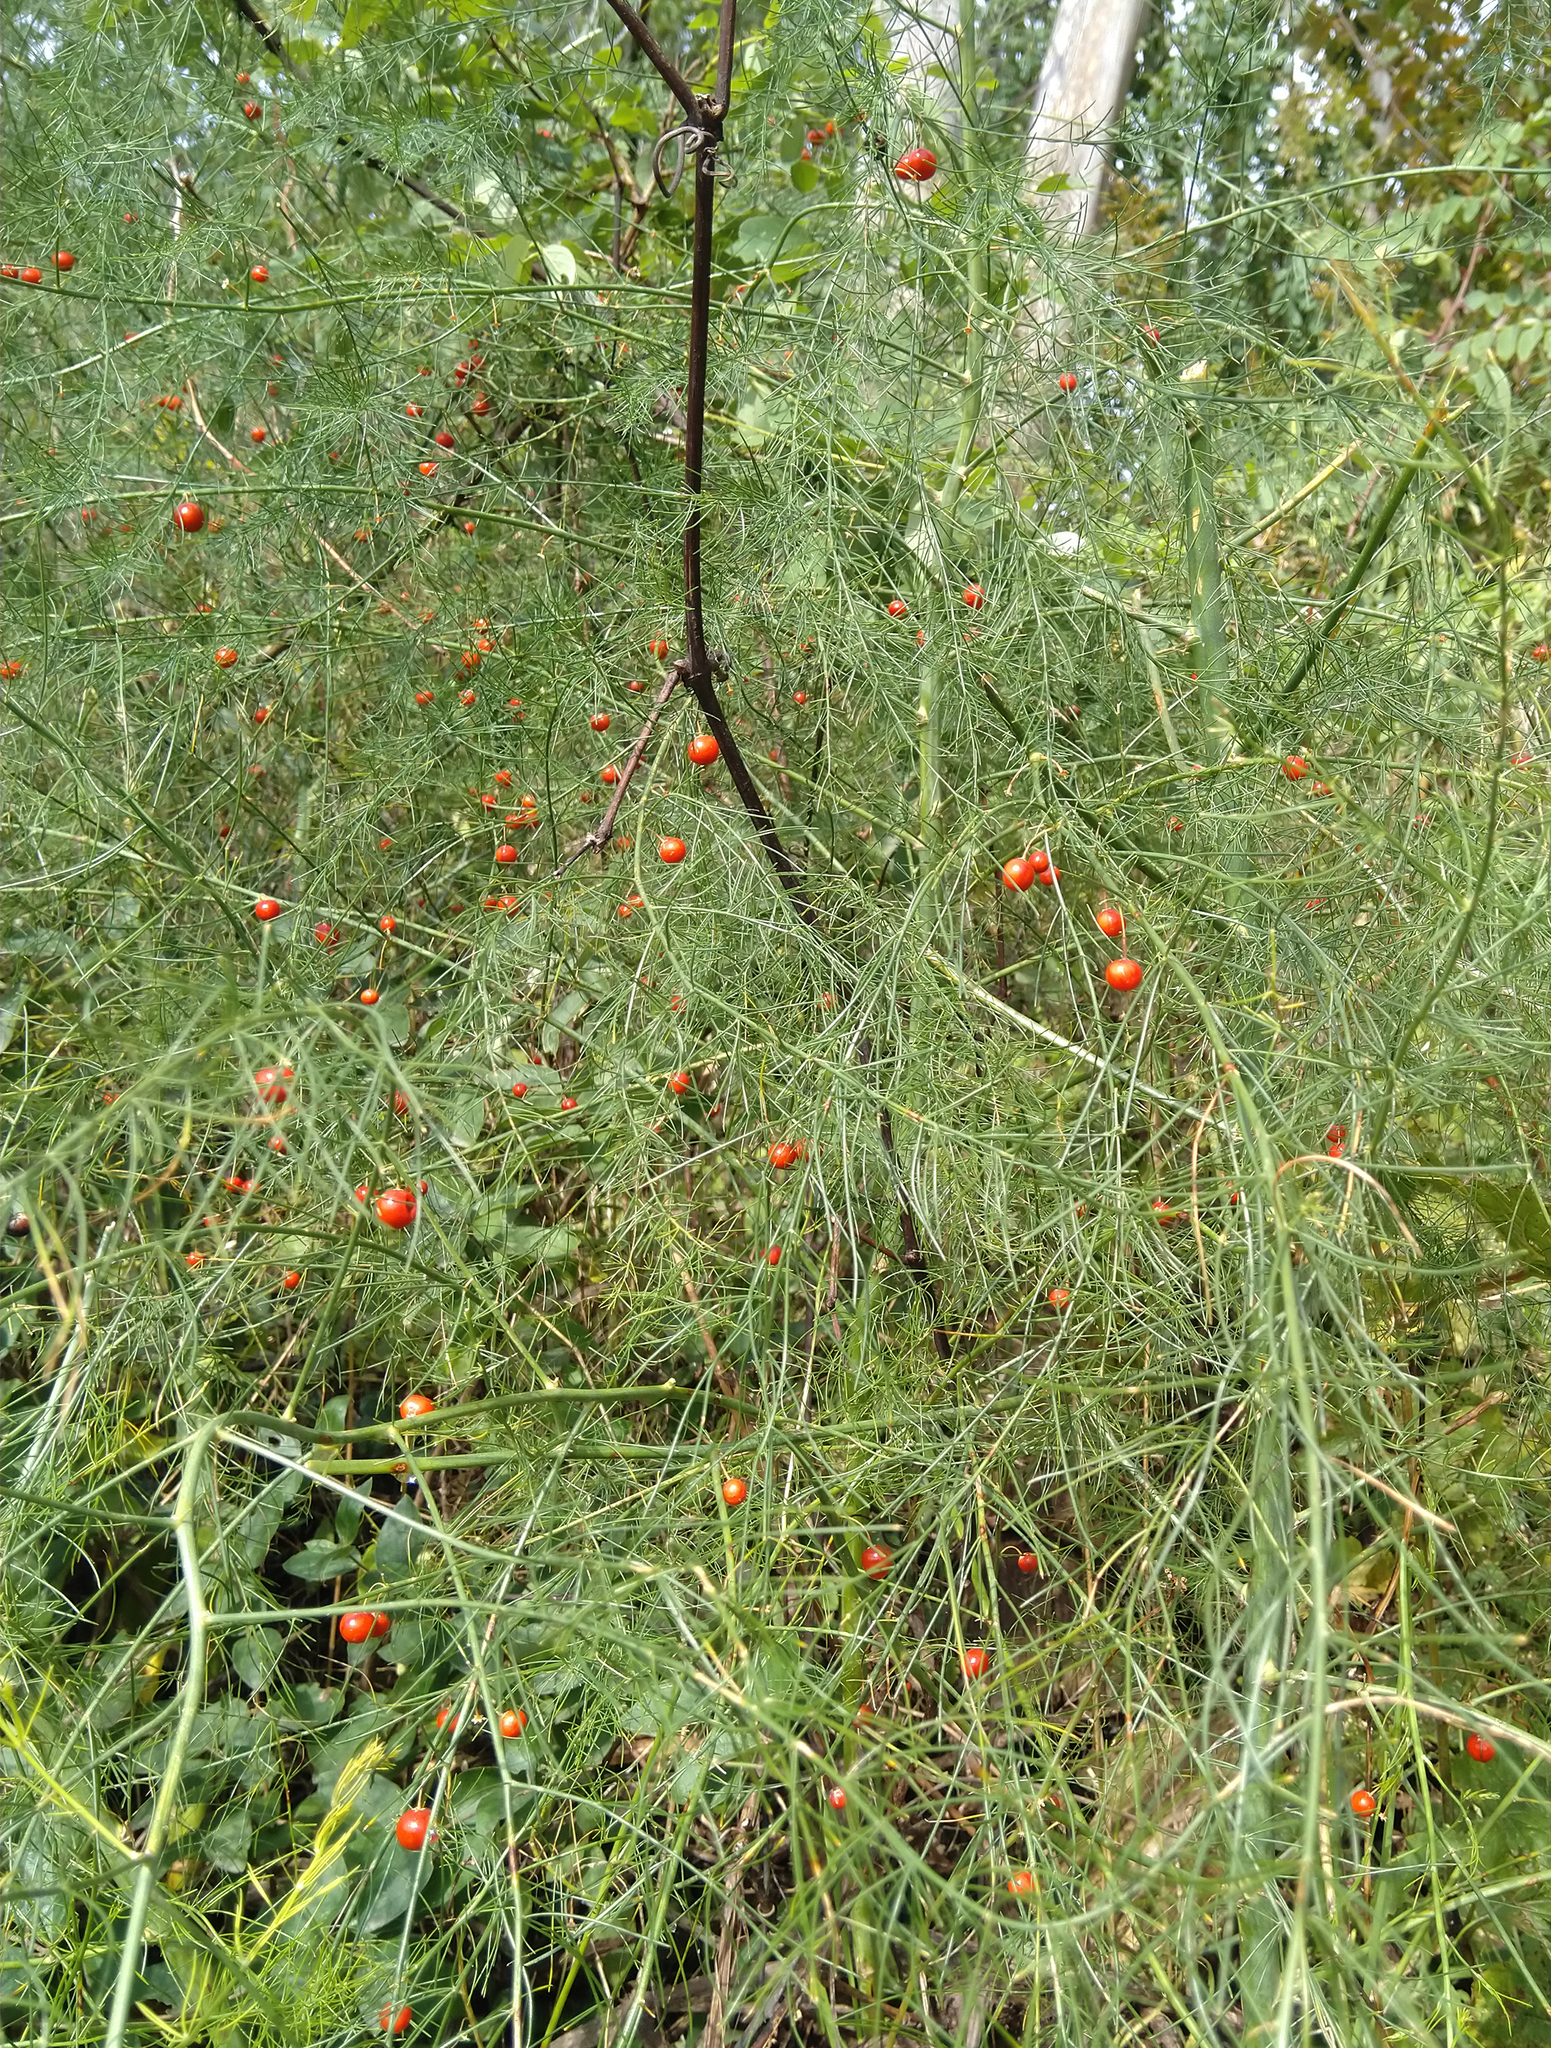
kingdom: Plantae
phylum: Tracheophyta
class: Liliopsida
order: Asparagales
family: Asparagaceae
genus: Asparagus
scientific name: Asparagus officinalis
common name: Garden asparagus
